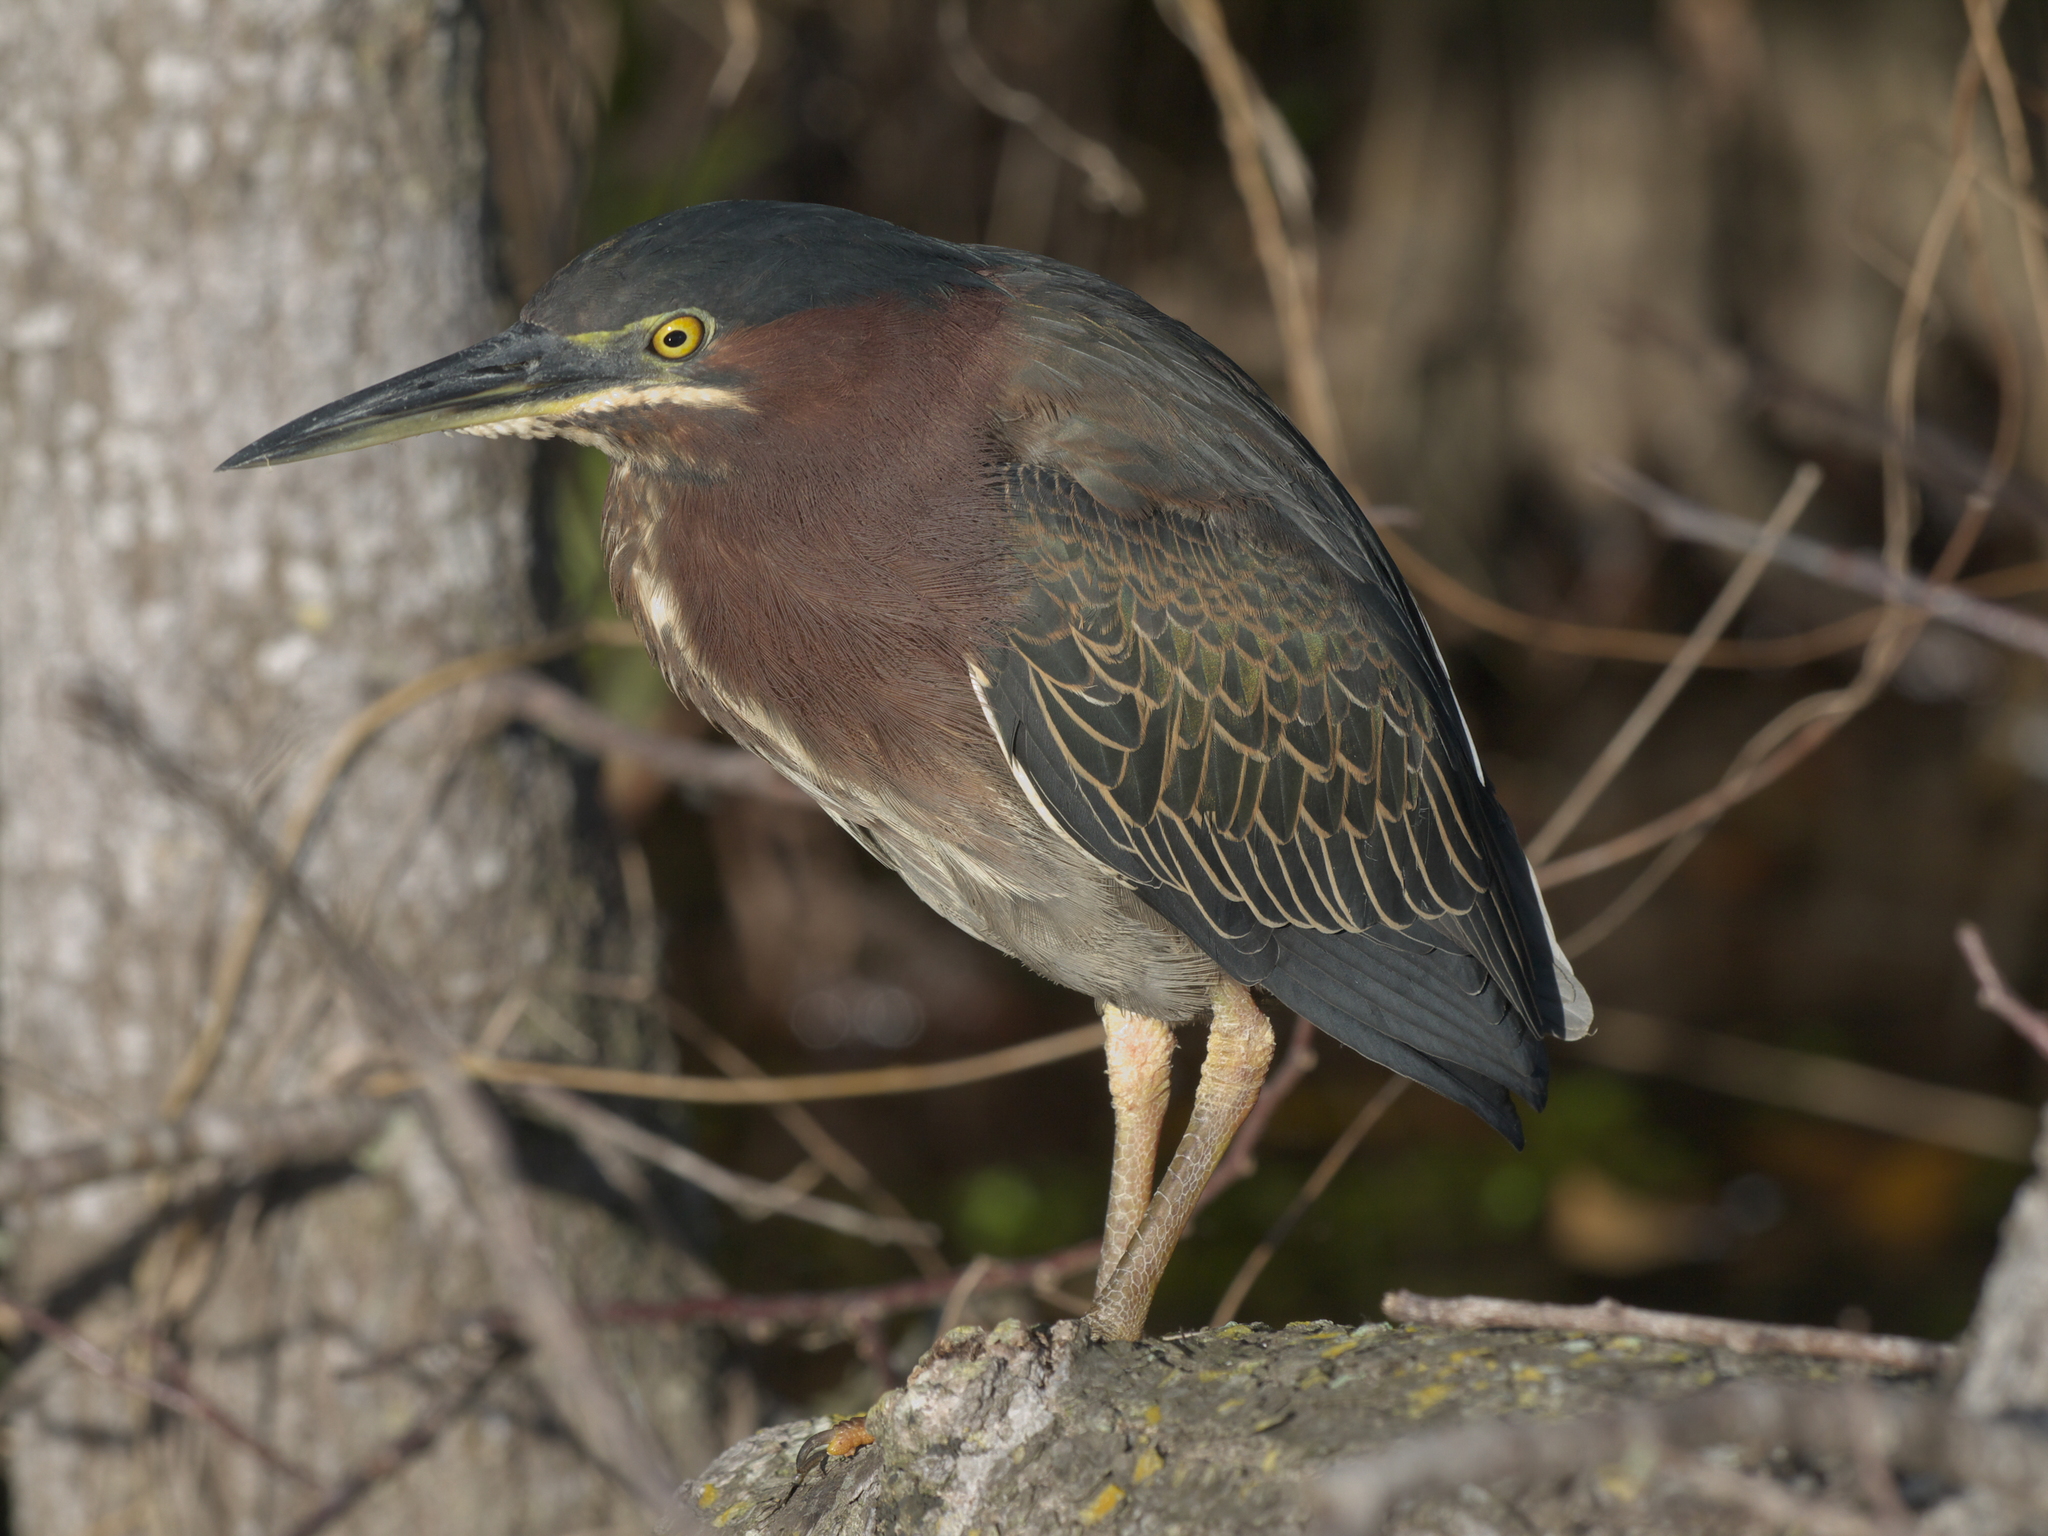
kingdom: Animalia
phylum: Chordata
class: Aves
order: Pelecaniformes
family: Ardeidae
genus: Butorides
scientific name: Butorides virescens
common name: Green heron
